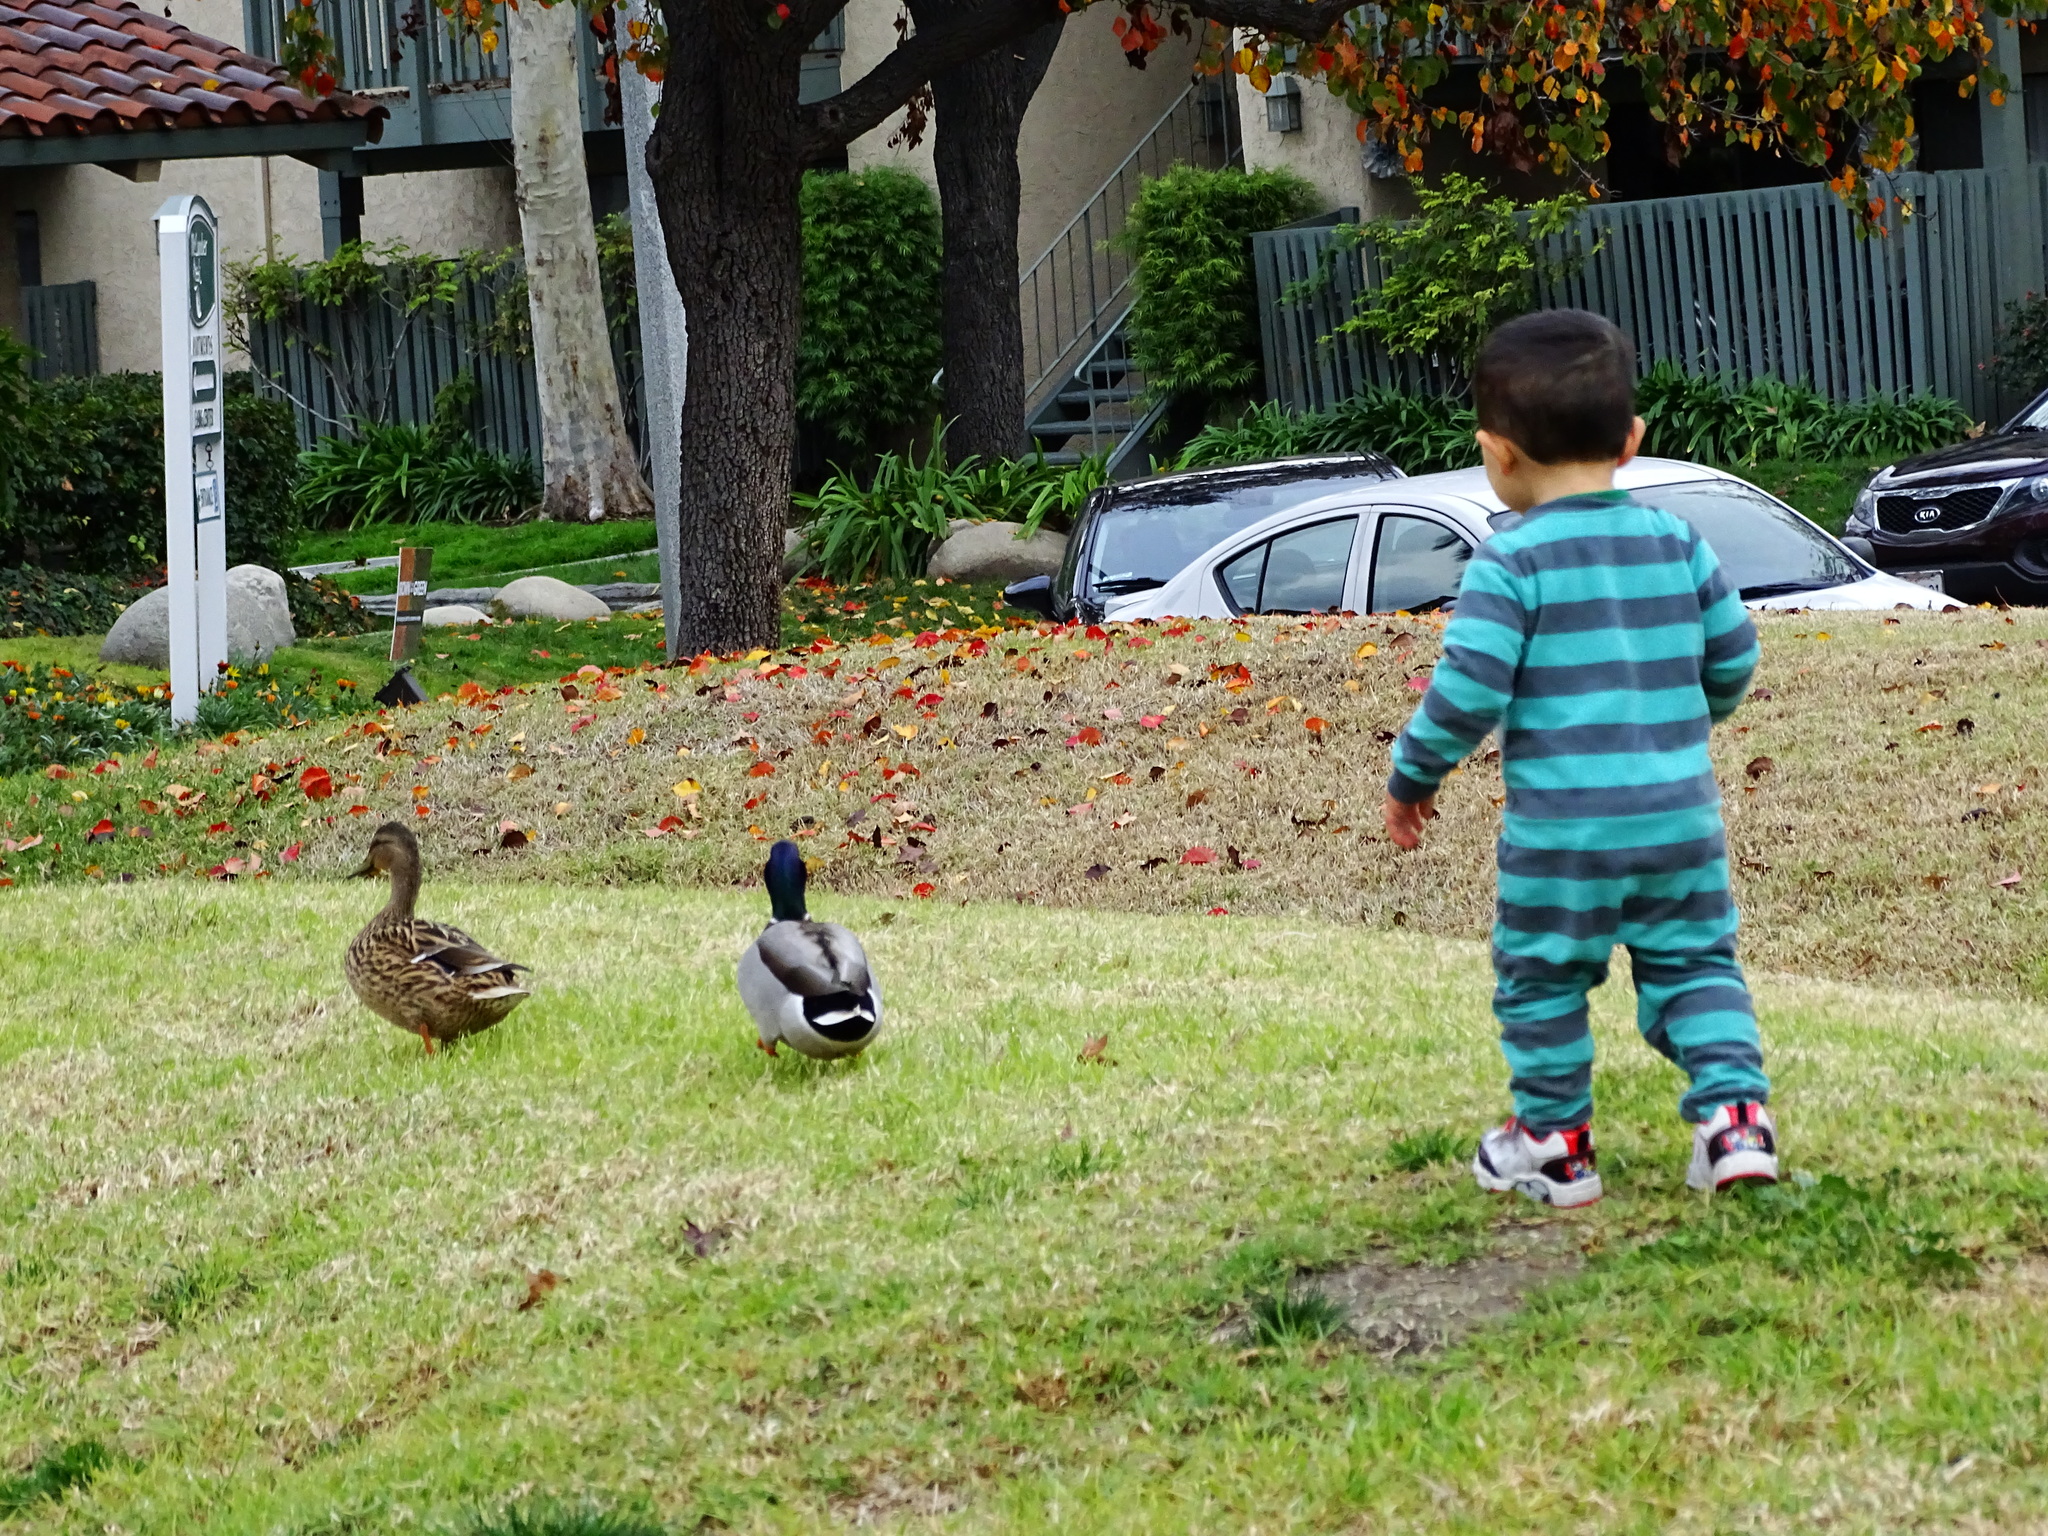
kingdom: Animalia
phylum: Chordata
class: Aves
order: Anseriformes
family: Anatidae
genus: Anas
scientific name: Anas platyrhynchos
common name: Mallard
